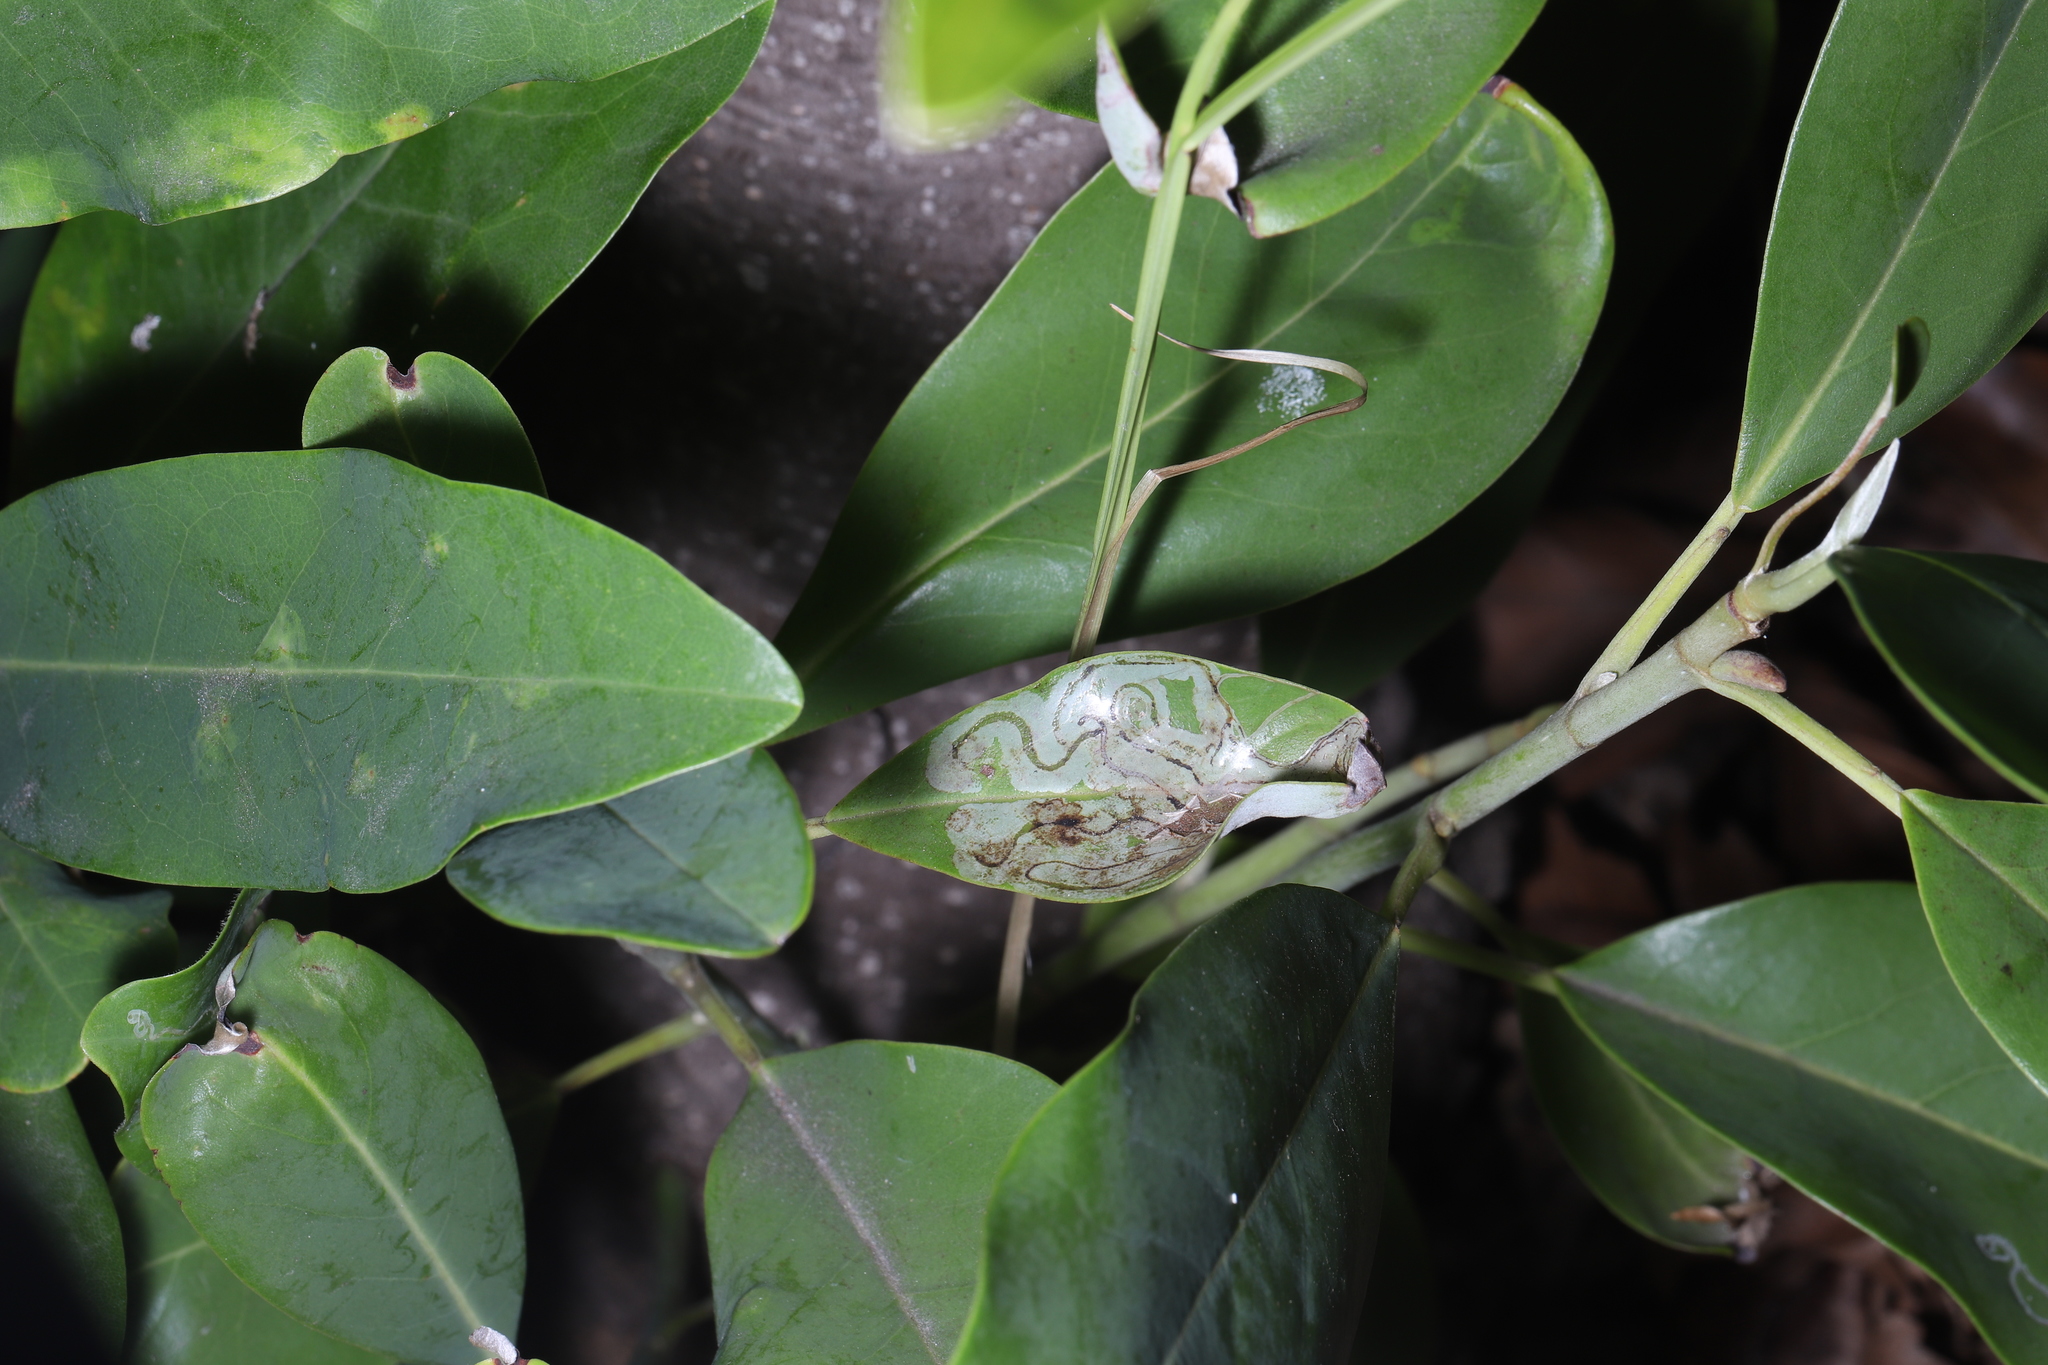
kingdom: Animalia
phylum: Arthropoda
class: Insecta
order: Lepidoptera
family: Gracillariidae
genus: Phyllocnistis
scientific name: Phyllocnistis liriodendronella
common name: Tulip tree leaf miner
